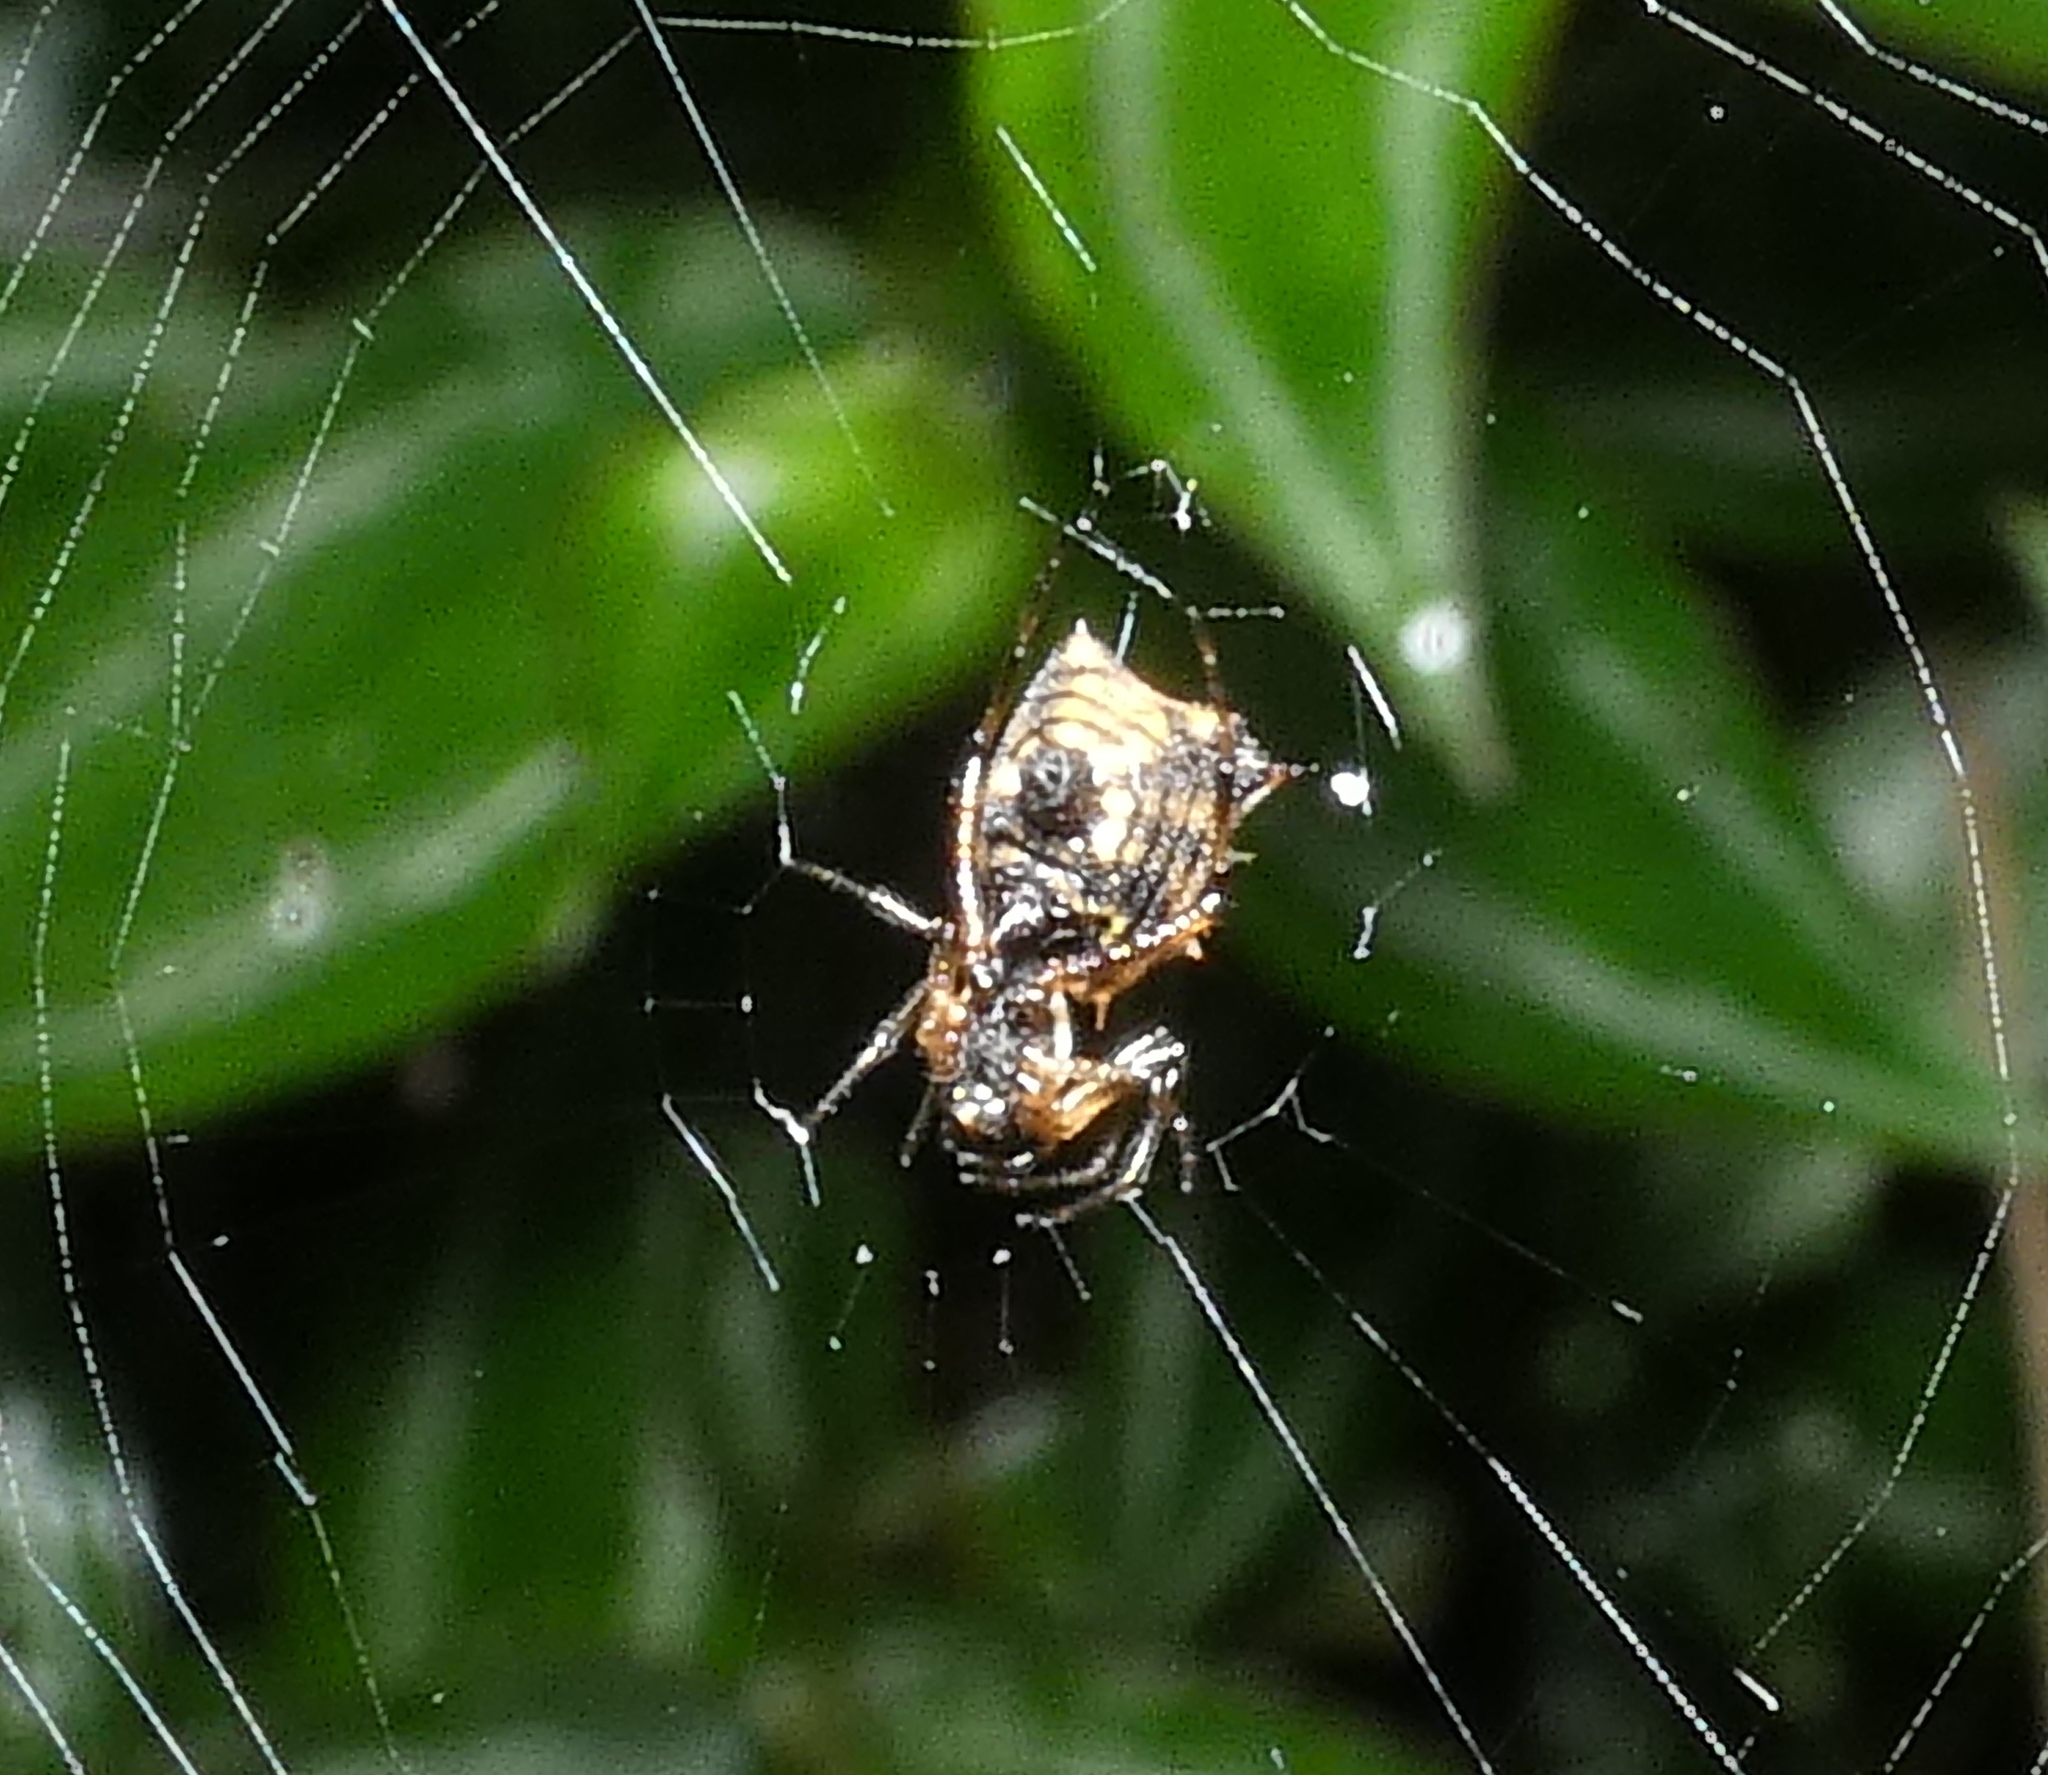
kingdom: Animalia
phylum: Arthropoda
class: Arachnida
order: Araneae
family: Araneidae
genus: Micrathena
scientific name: Micrathena picta
